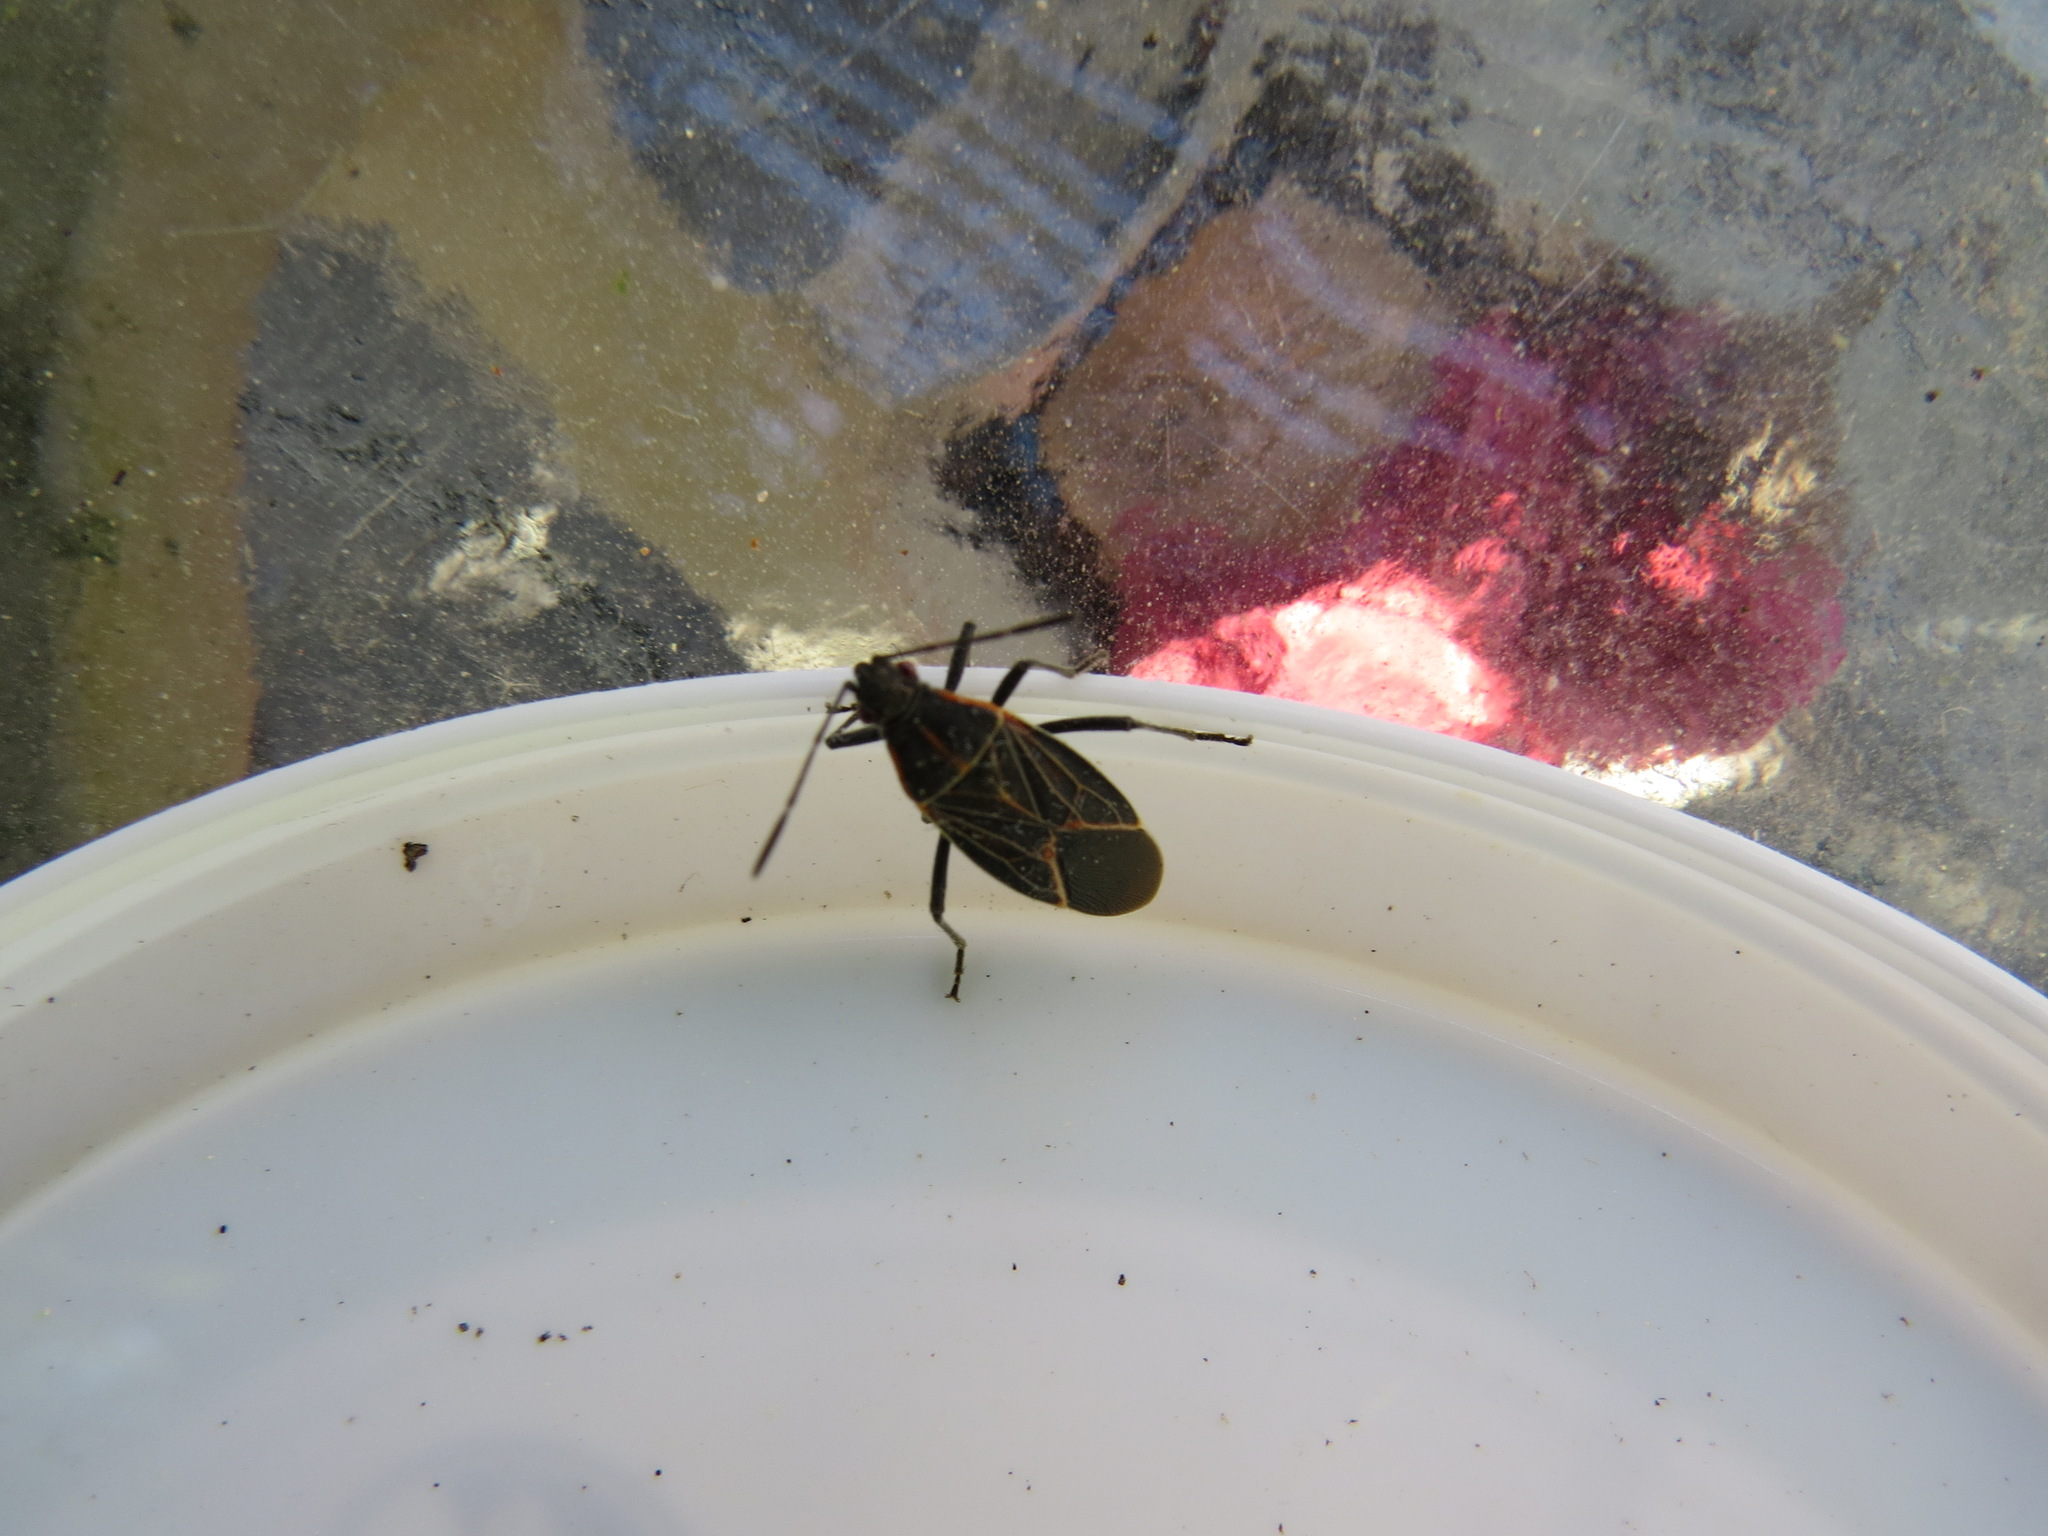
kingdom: Animalia
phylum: Arthropoda
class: Insecta
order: Hemiptera
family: Rhopalidae
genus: Boisea
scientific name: Boisea rubrolineata
